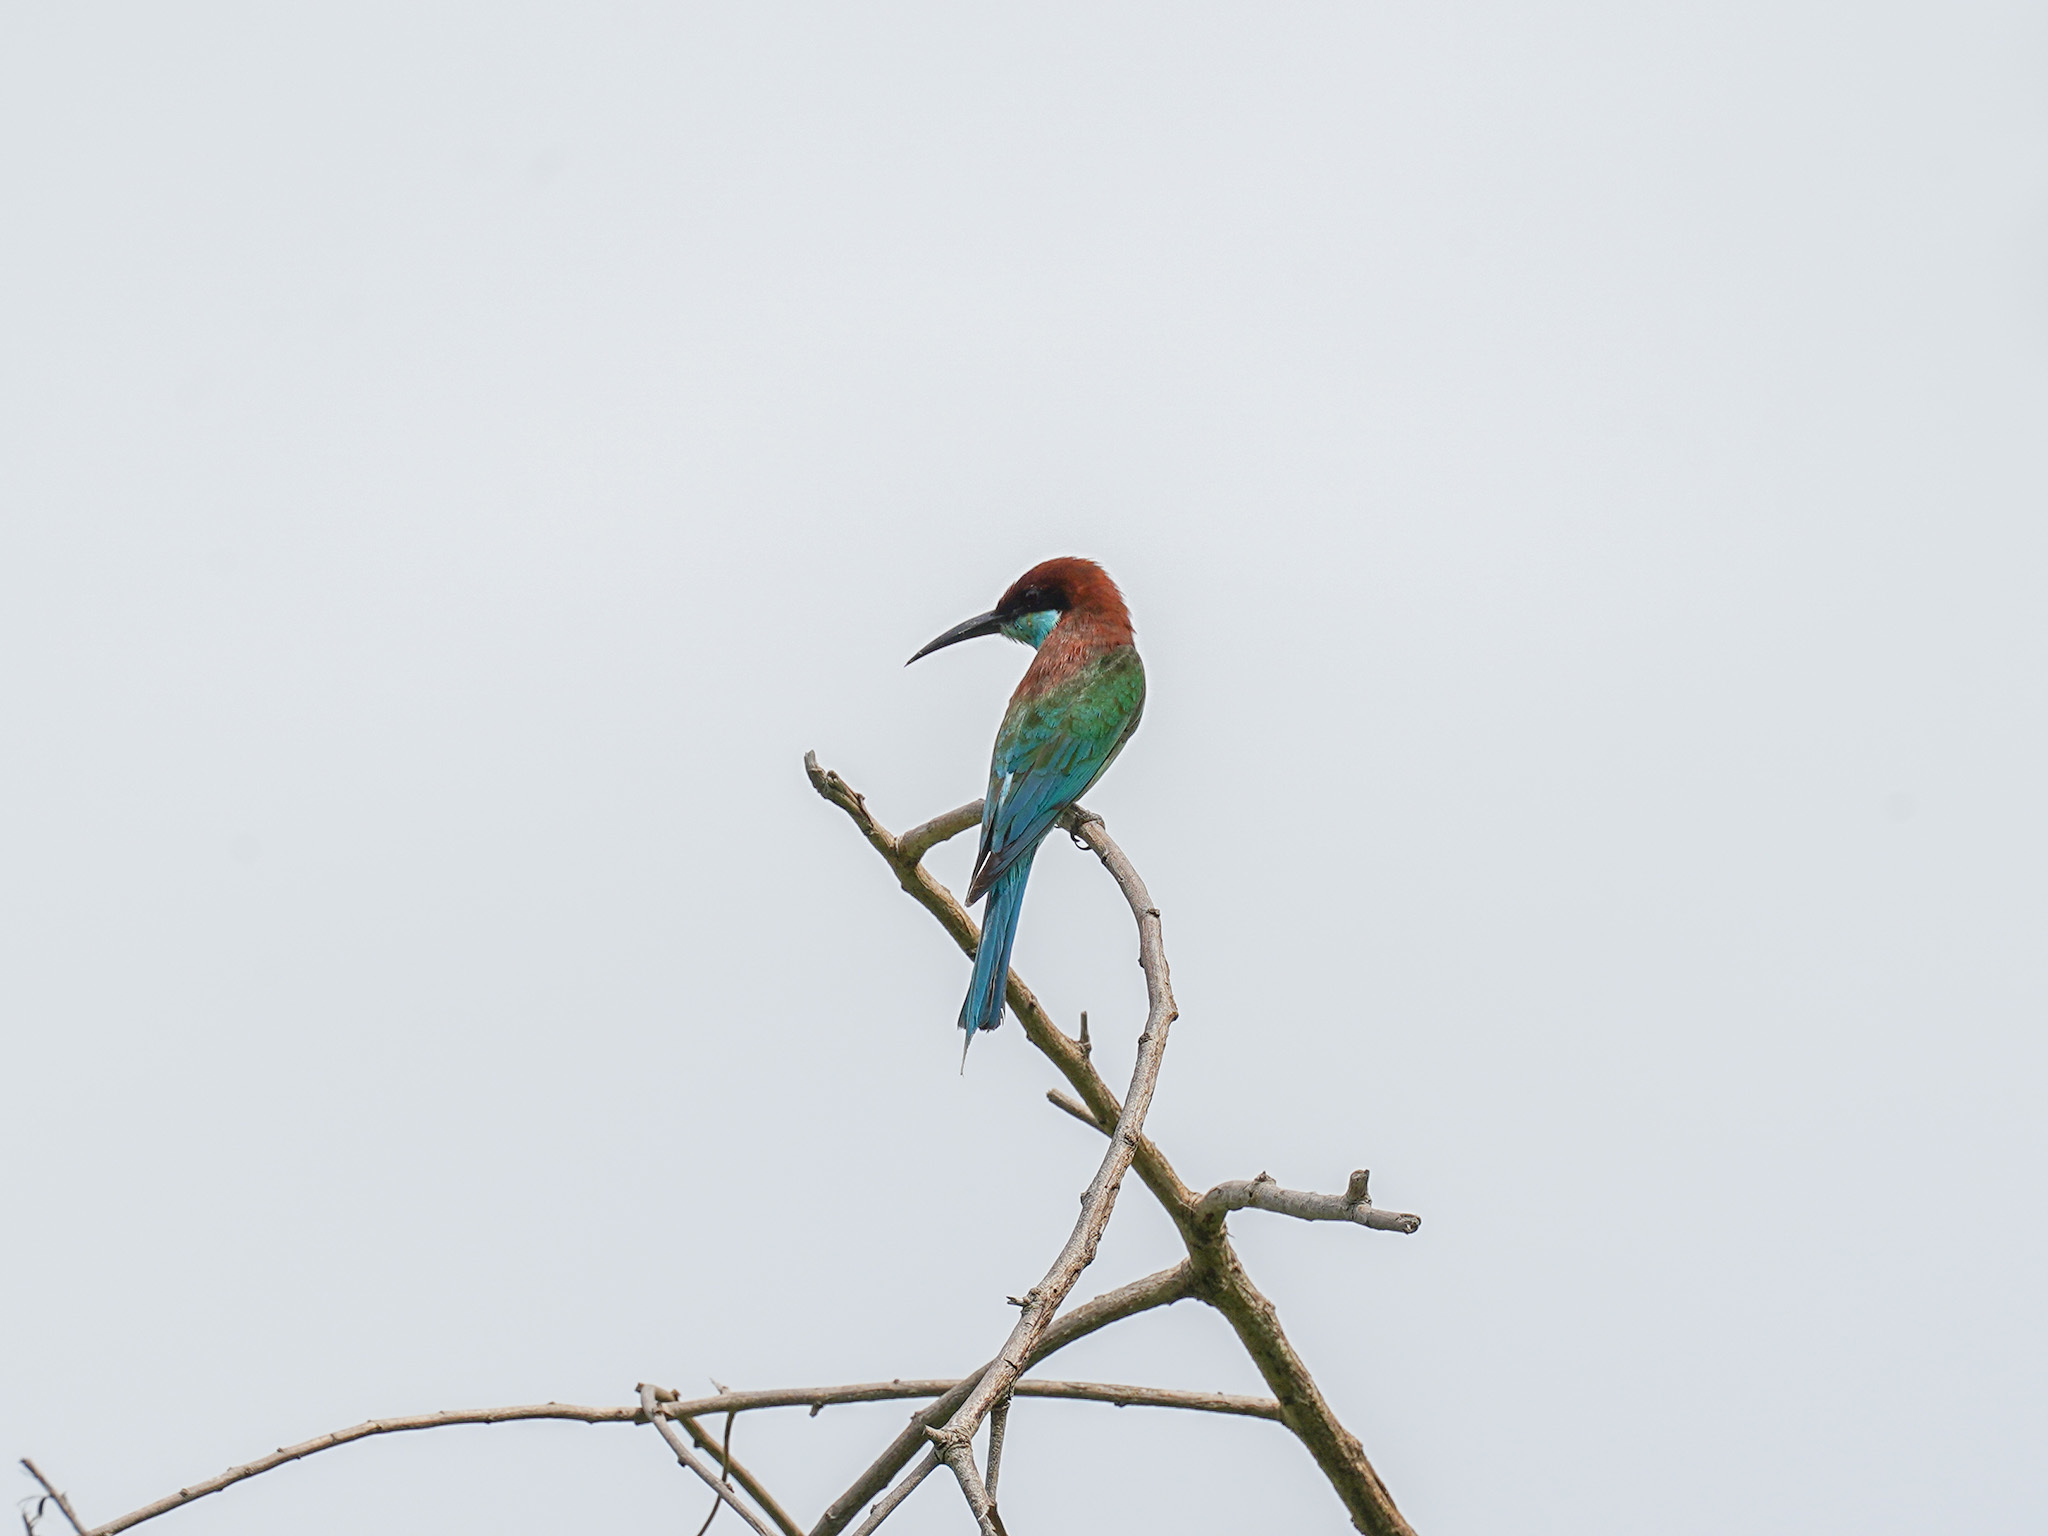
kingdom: Animalia
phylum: Chordata
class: Aves
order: Coraciiformes
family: Meropidae
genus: Merops
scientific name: Merops viridis
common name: Blue-throated bee-eater
